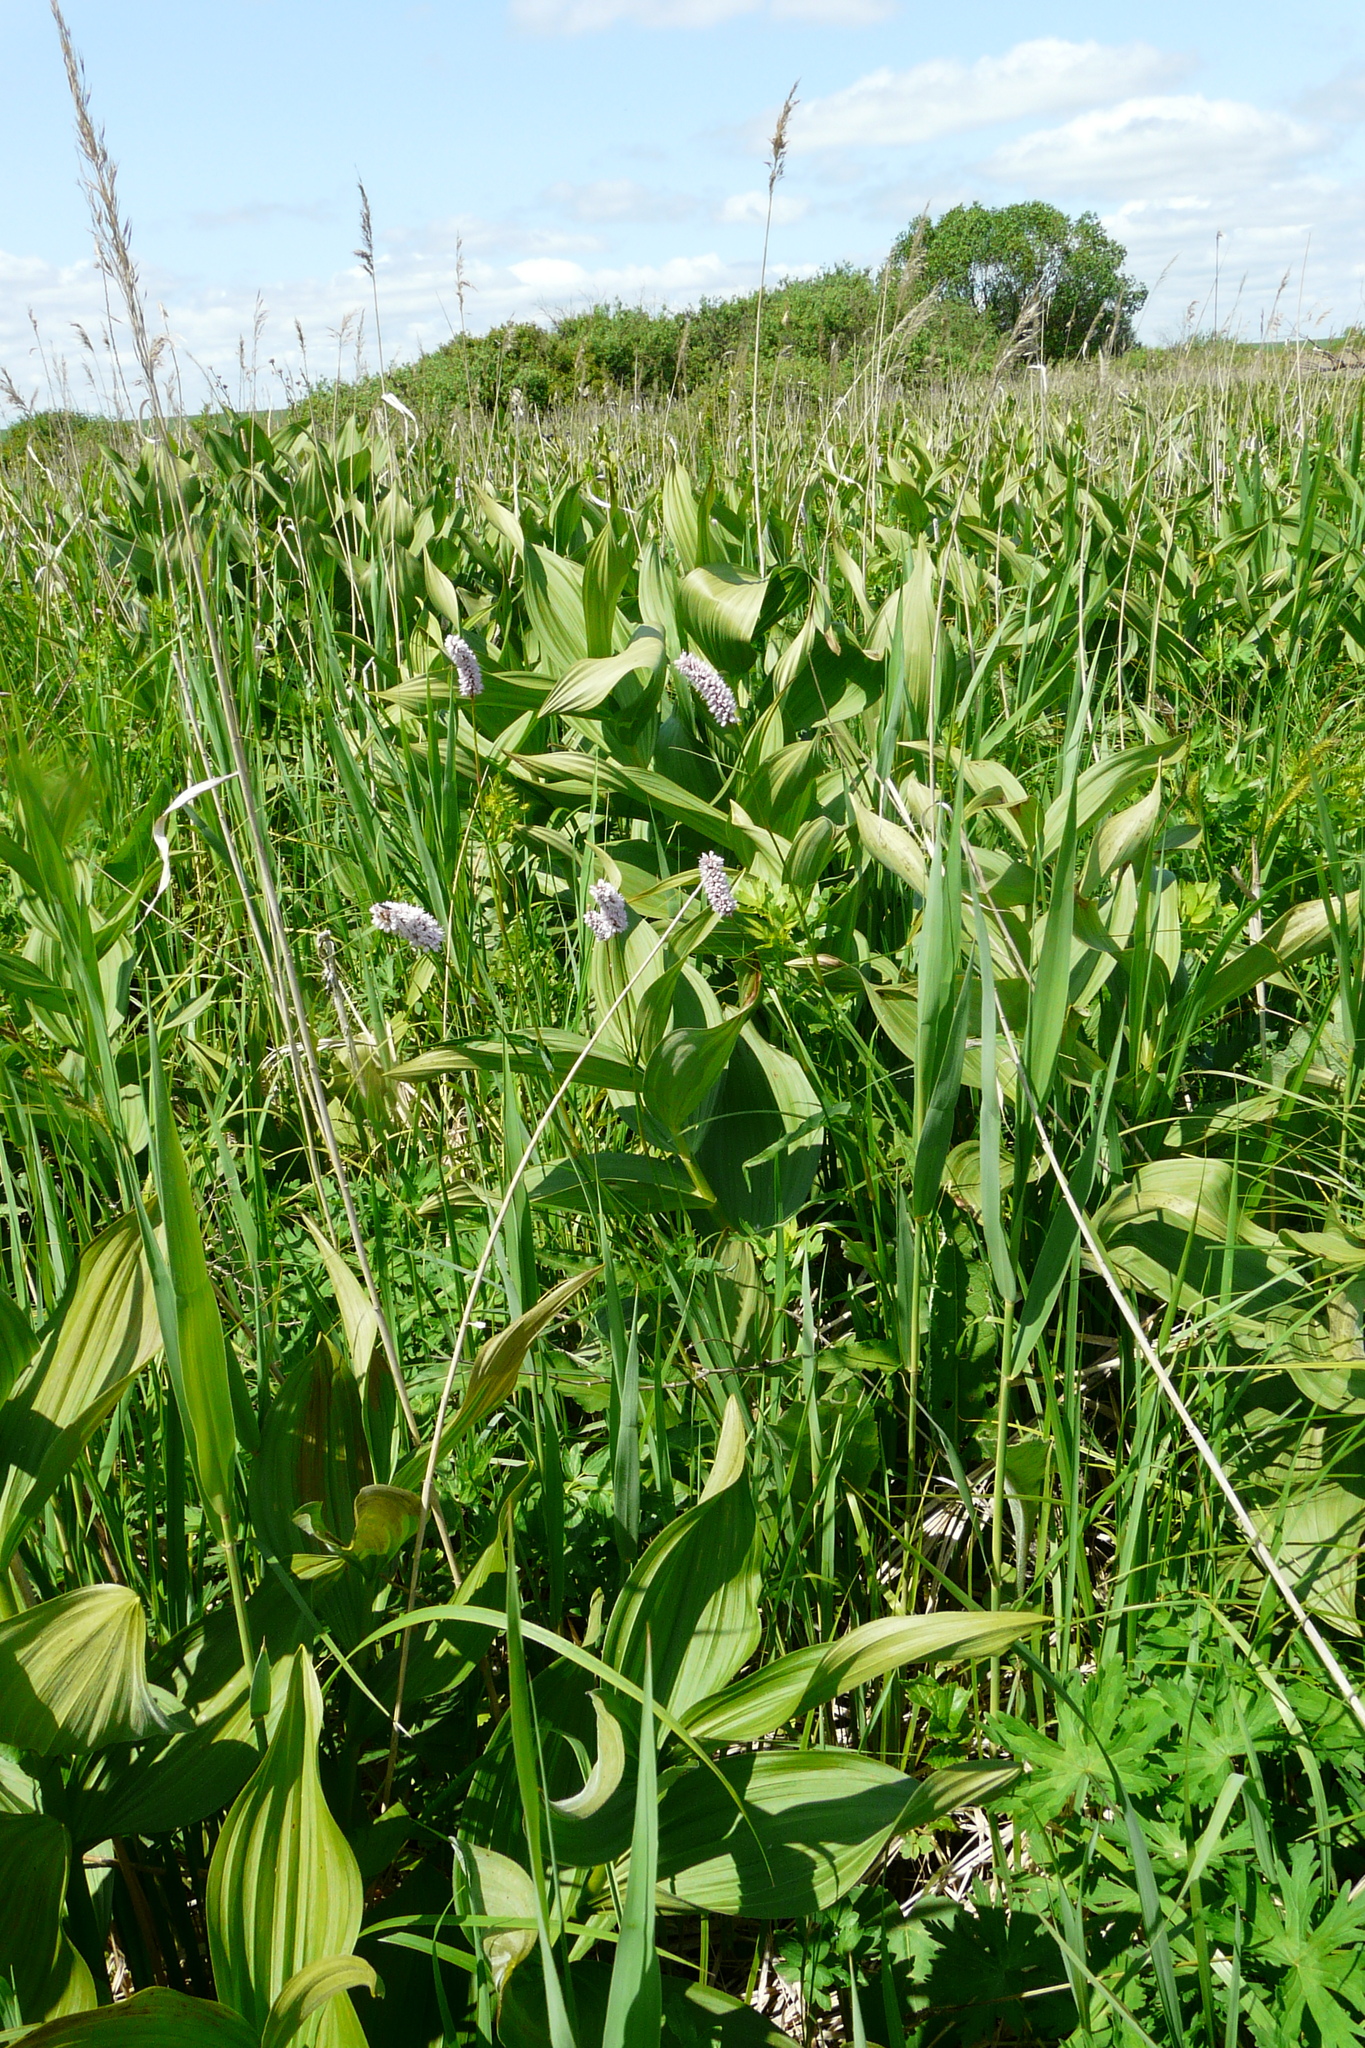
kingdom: Plantae
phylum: Tracheophyta
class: Magnoliopsida
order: Caryophyllales
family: Polygonaceae
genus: Bistorta
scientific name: Bistorta officinalis
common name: Common bistort
